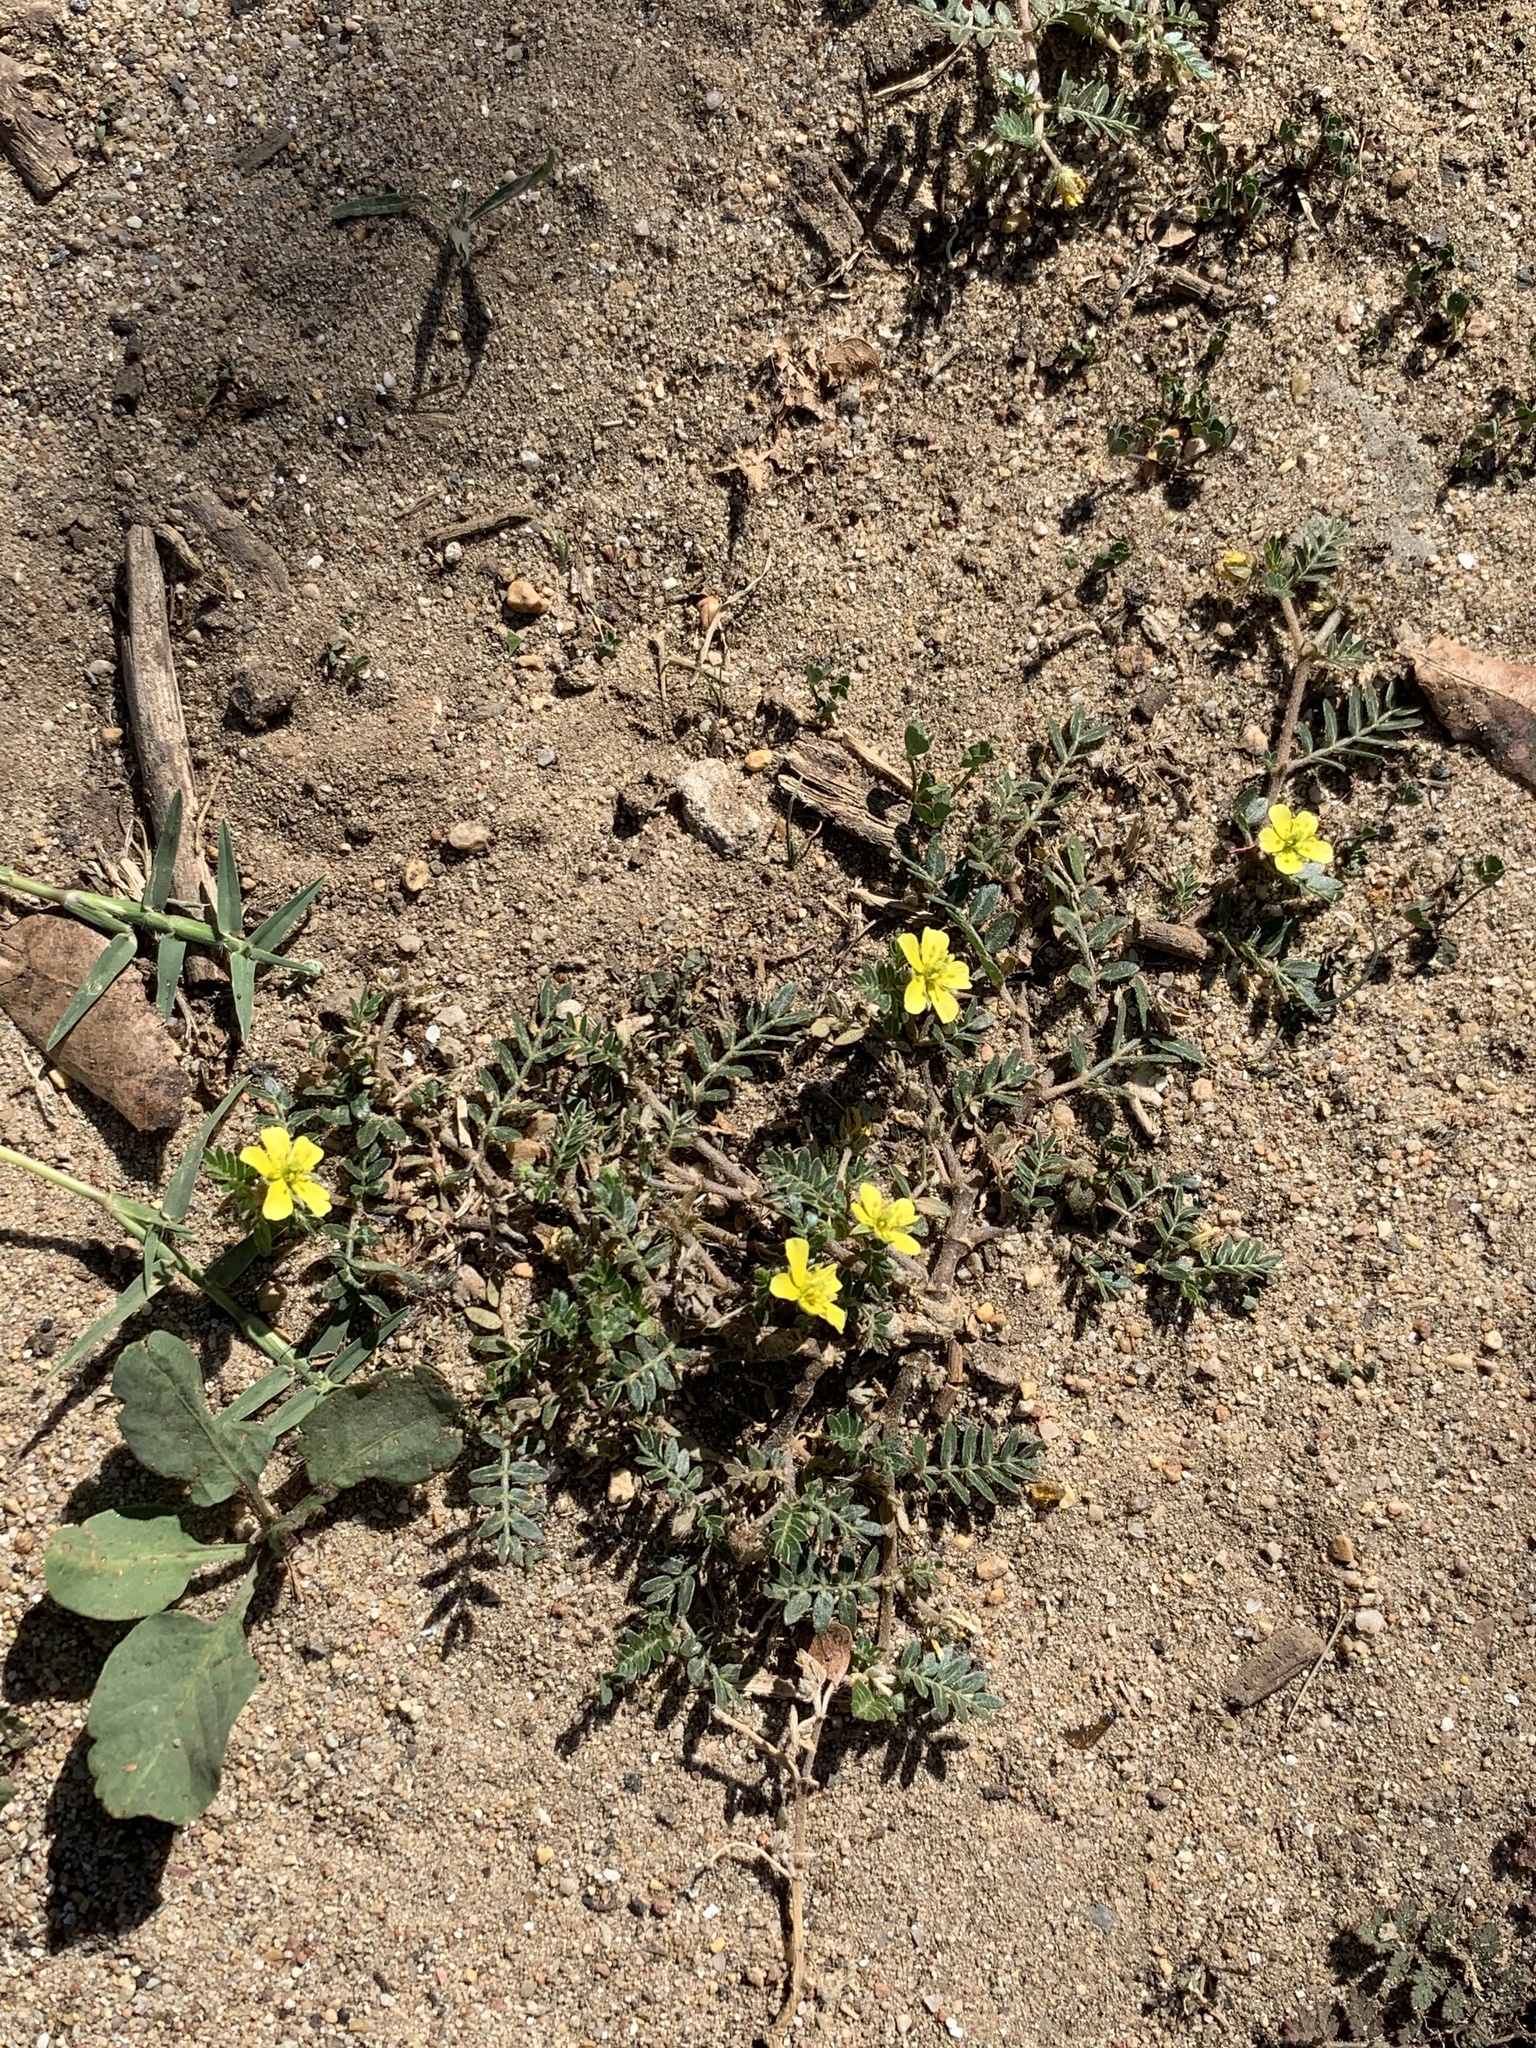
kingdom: Plantae
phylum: Tracheophyta
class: Magnoliopsida
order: Zygophyllales
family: Zygophyllaceae
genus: Tribulus
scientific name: Tribulus terrestris
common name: Puncturevine
